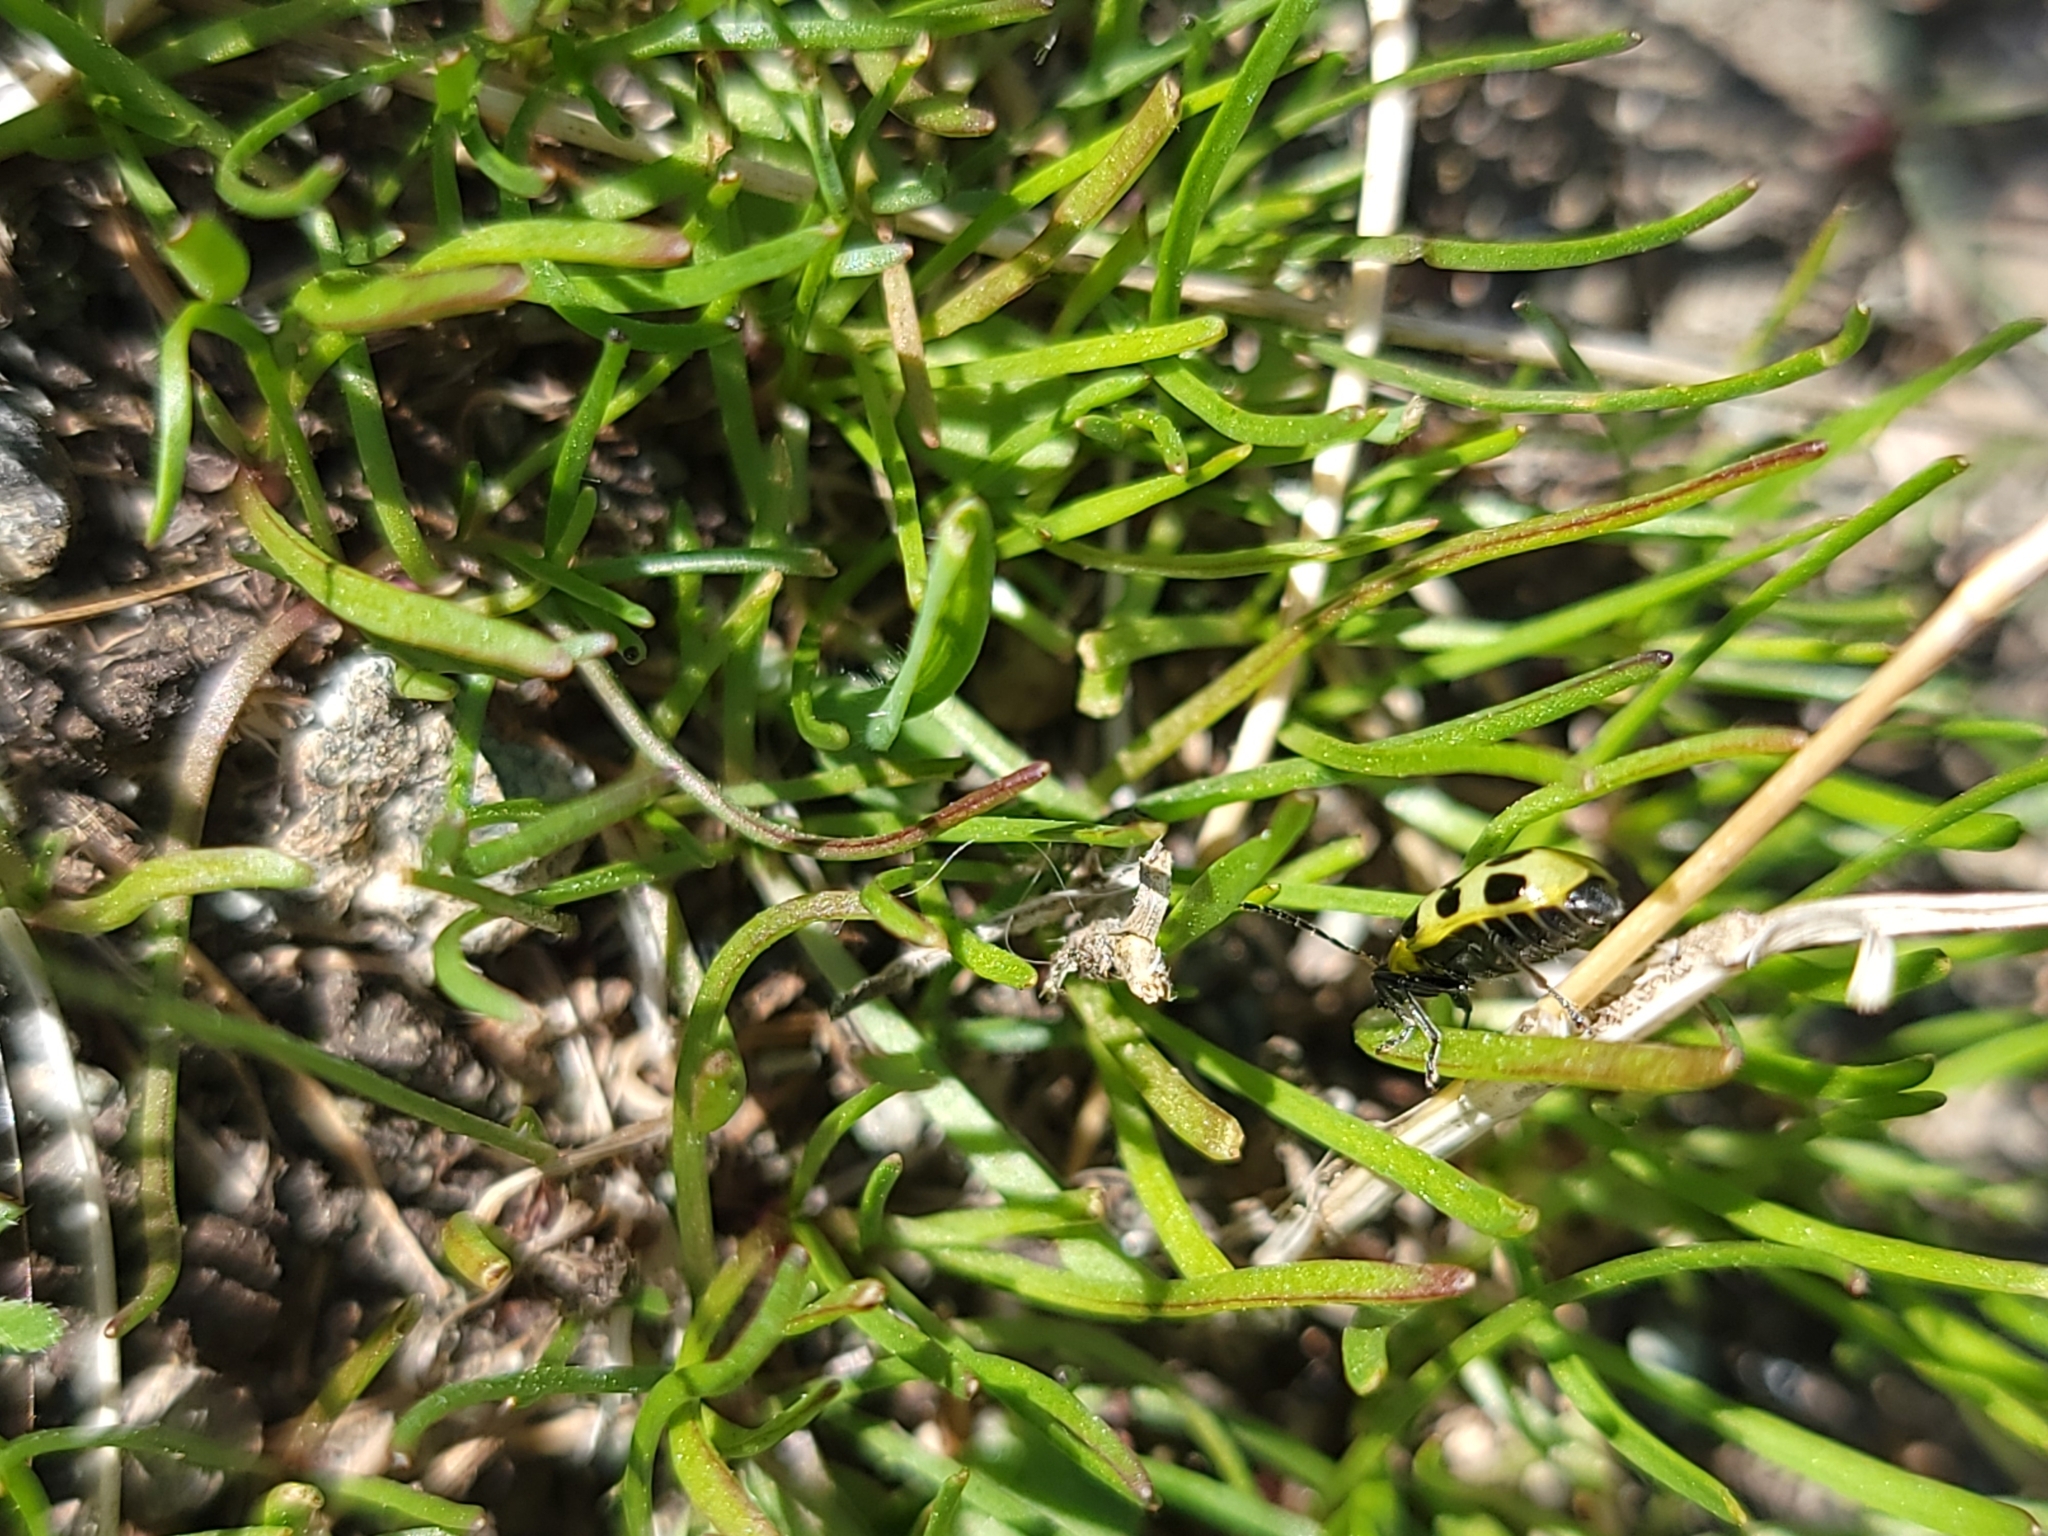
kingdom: Animalia
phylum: Arthropoda
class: Insecta
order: Coleoptera
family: Chrysomelidae
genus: Diabrotica
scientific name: Diabrotica undecimpunctata
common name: Spotted cucumber beetle
